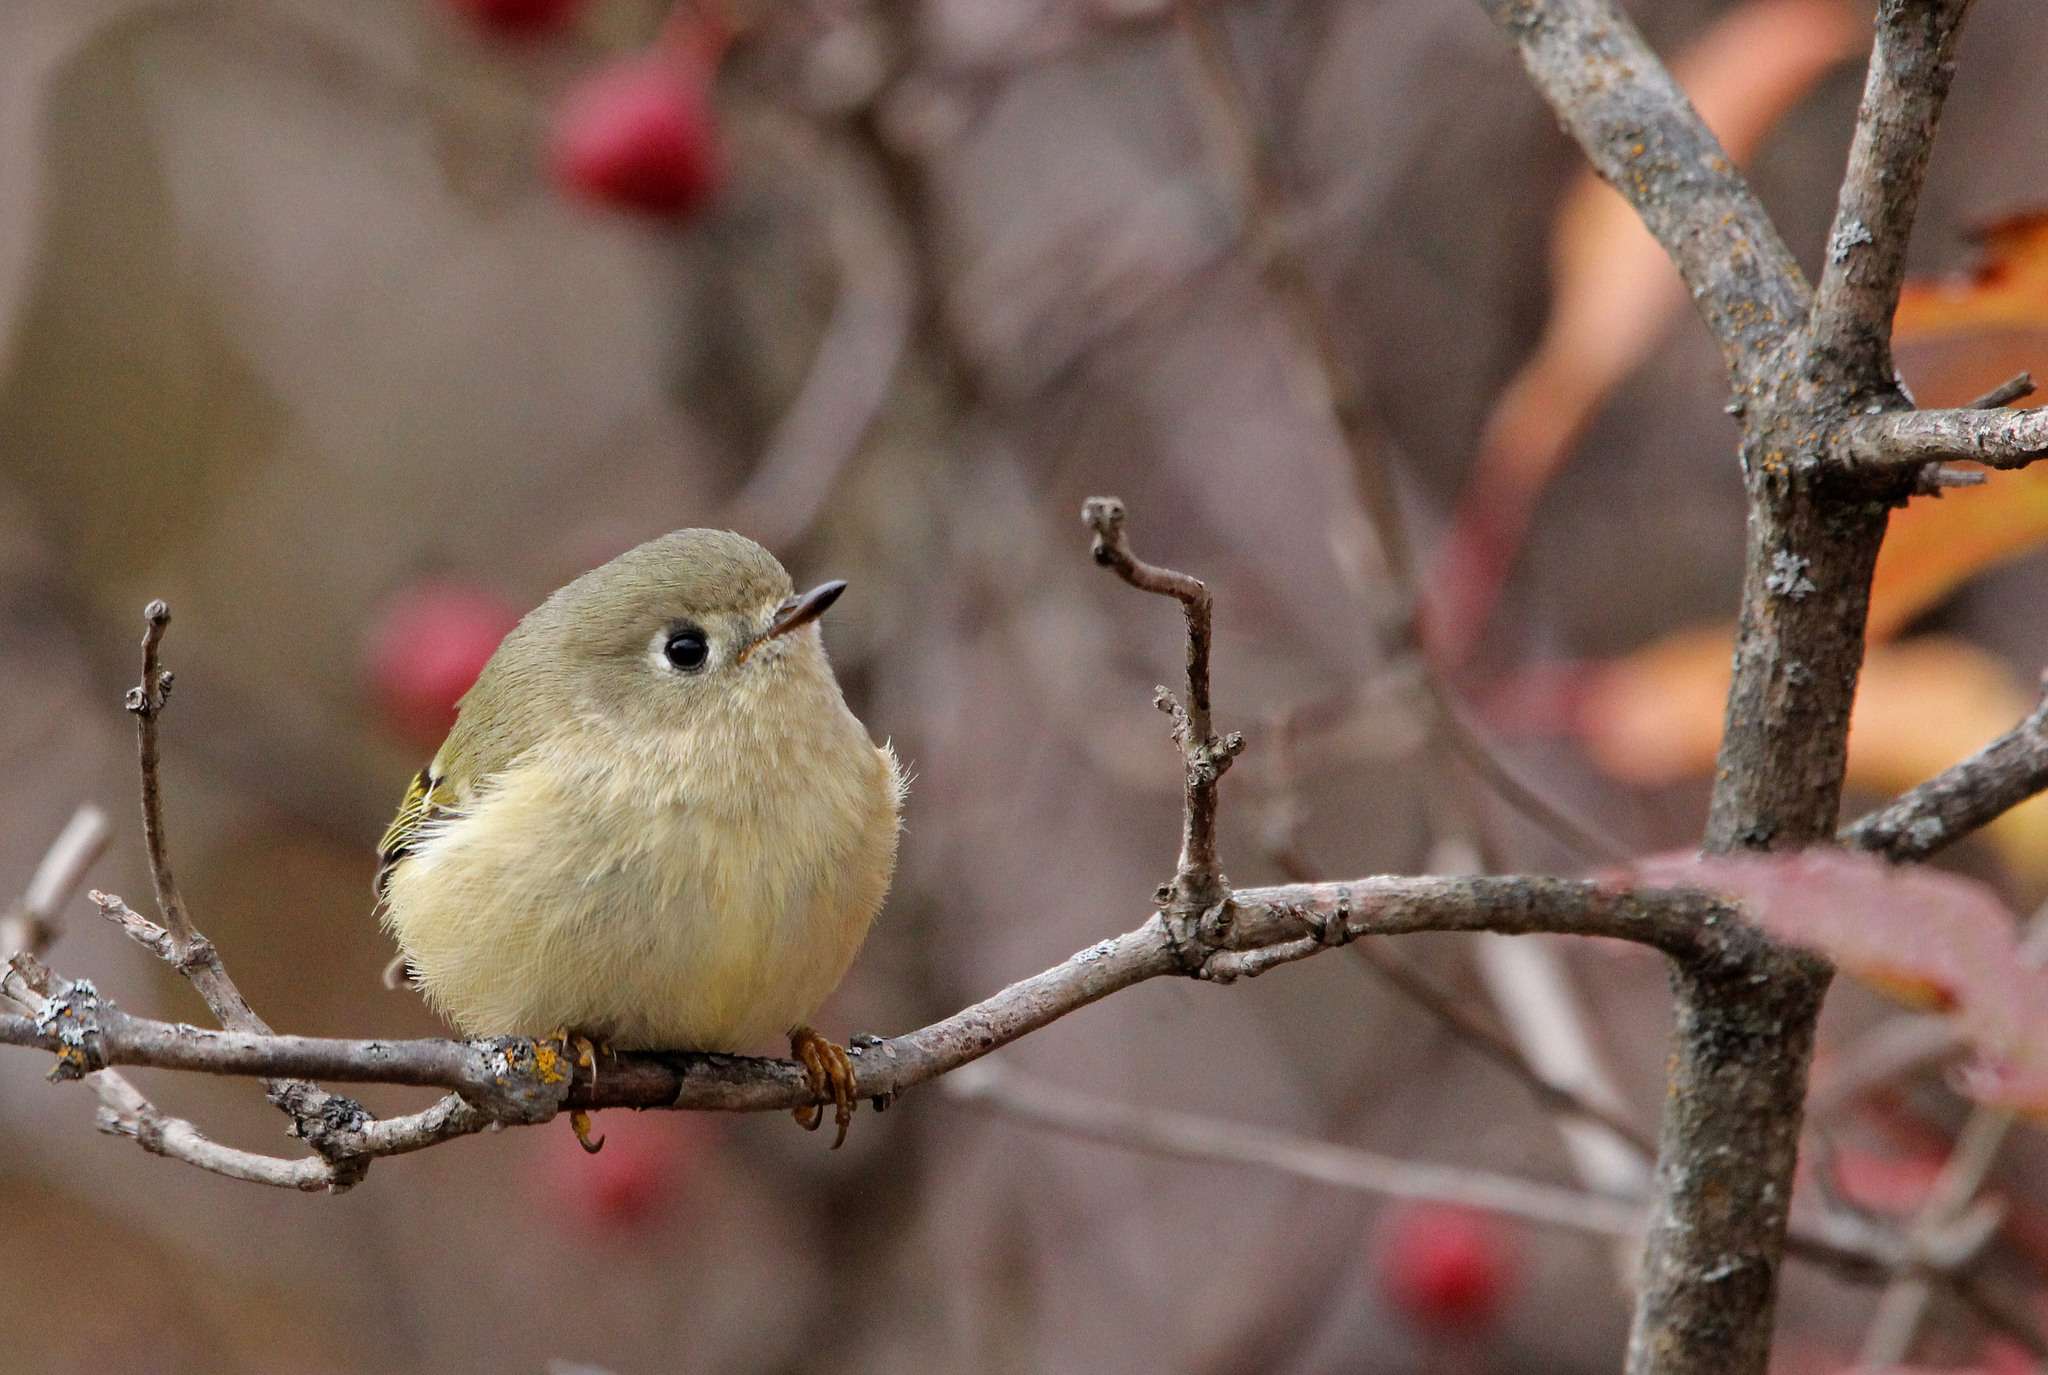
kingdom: Animalia
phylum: Chordata
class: Aves
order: Passeriformes
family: Regulidae
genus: Regulus
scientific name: Regulus calendula
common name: Ruby-crowned kinglet
